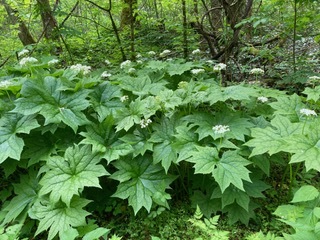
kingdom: Plantae
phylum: Tracheophyta
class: Magnoliopsida
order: Ranunculales
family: Berberidaceae
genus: Diphylleia
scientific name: Diphylleia cymosa
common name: Umbrella-leaf
